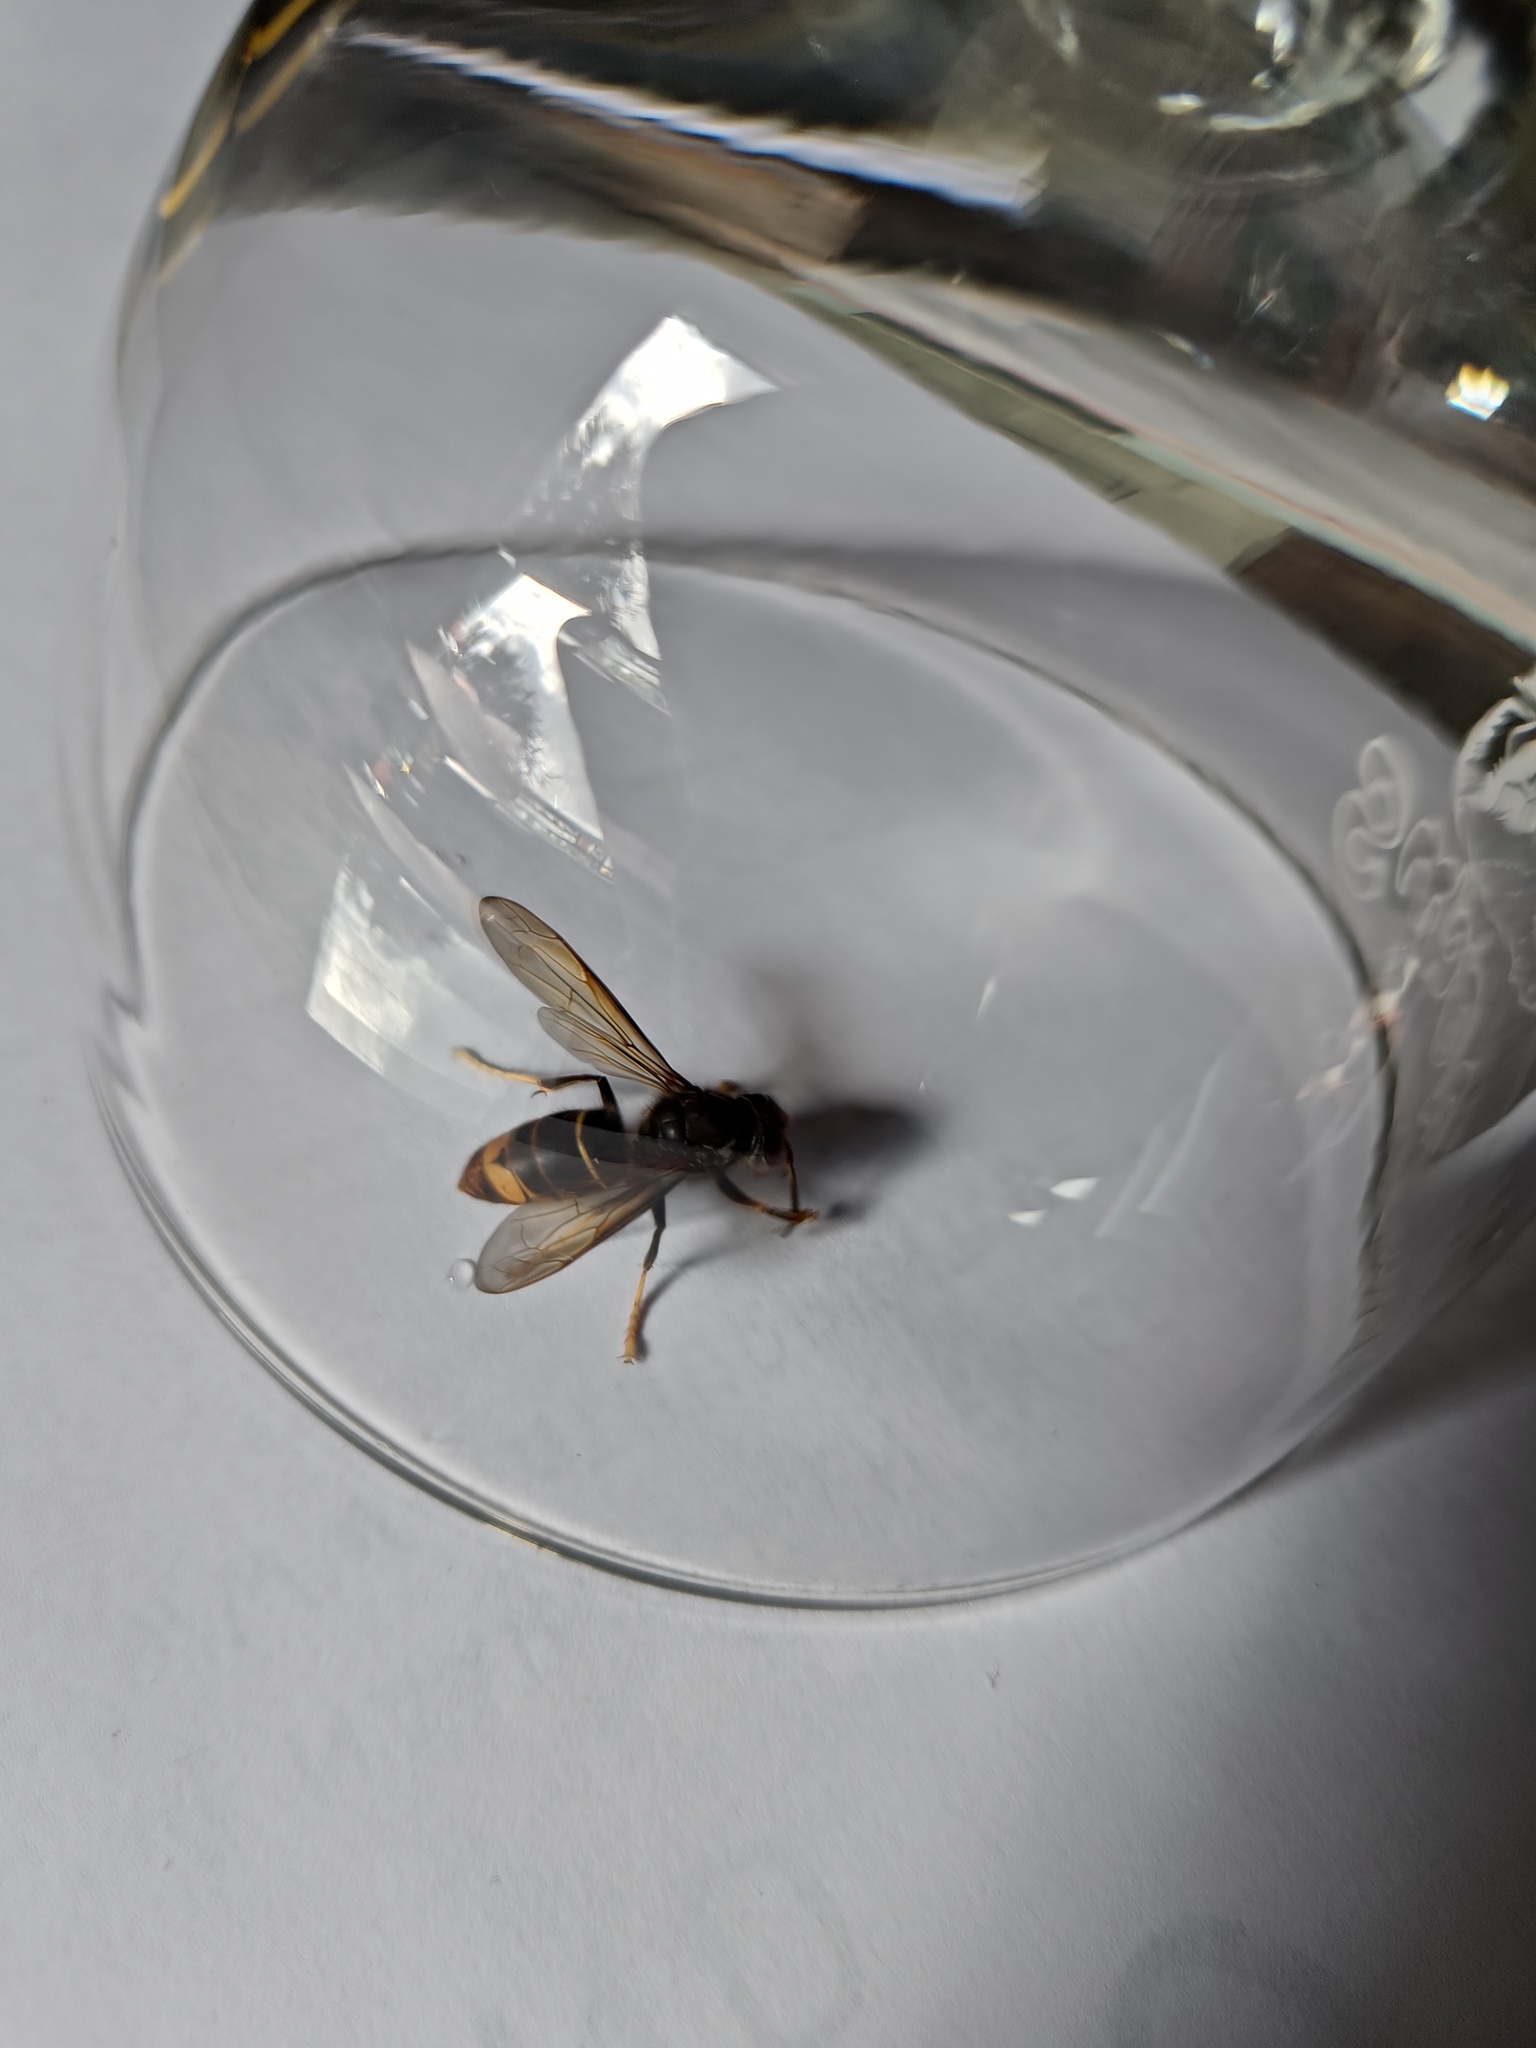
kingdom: Animalia
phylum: Arthropoda
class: Insecta
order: Hymenoptera
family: Vespidae
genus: Vespa
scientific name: Vespa velutina
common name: Asian hornet
